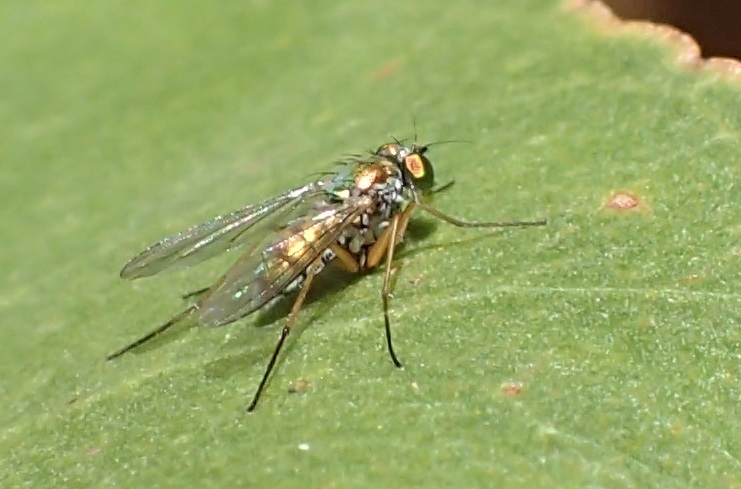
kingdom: Animalia
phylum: Arthropoda
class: Insecta
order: Diptera
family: Dolichopodidae
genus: Parentia
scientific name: Parentia dispar
